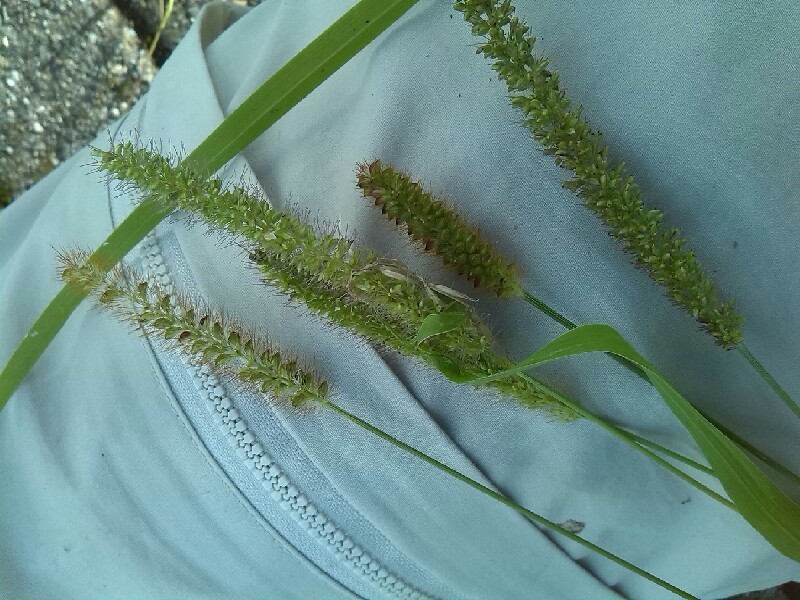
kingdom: Plantae
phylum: Tracheophyta
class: Liliopsida
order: Poales
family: Poaceae
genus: Setaria
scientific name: Setaria verticillata
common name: Hooked bristlegrass
